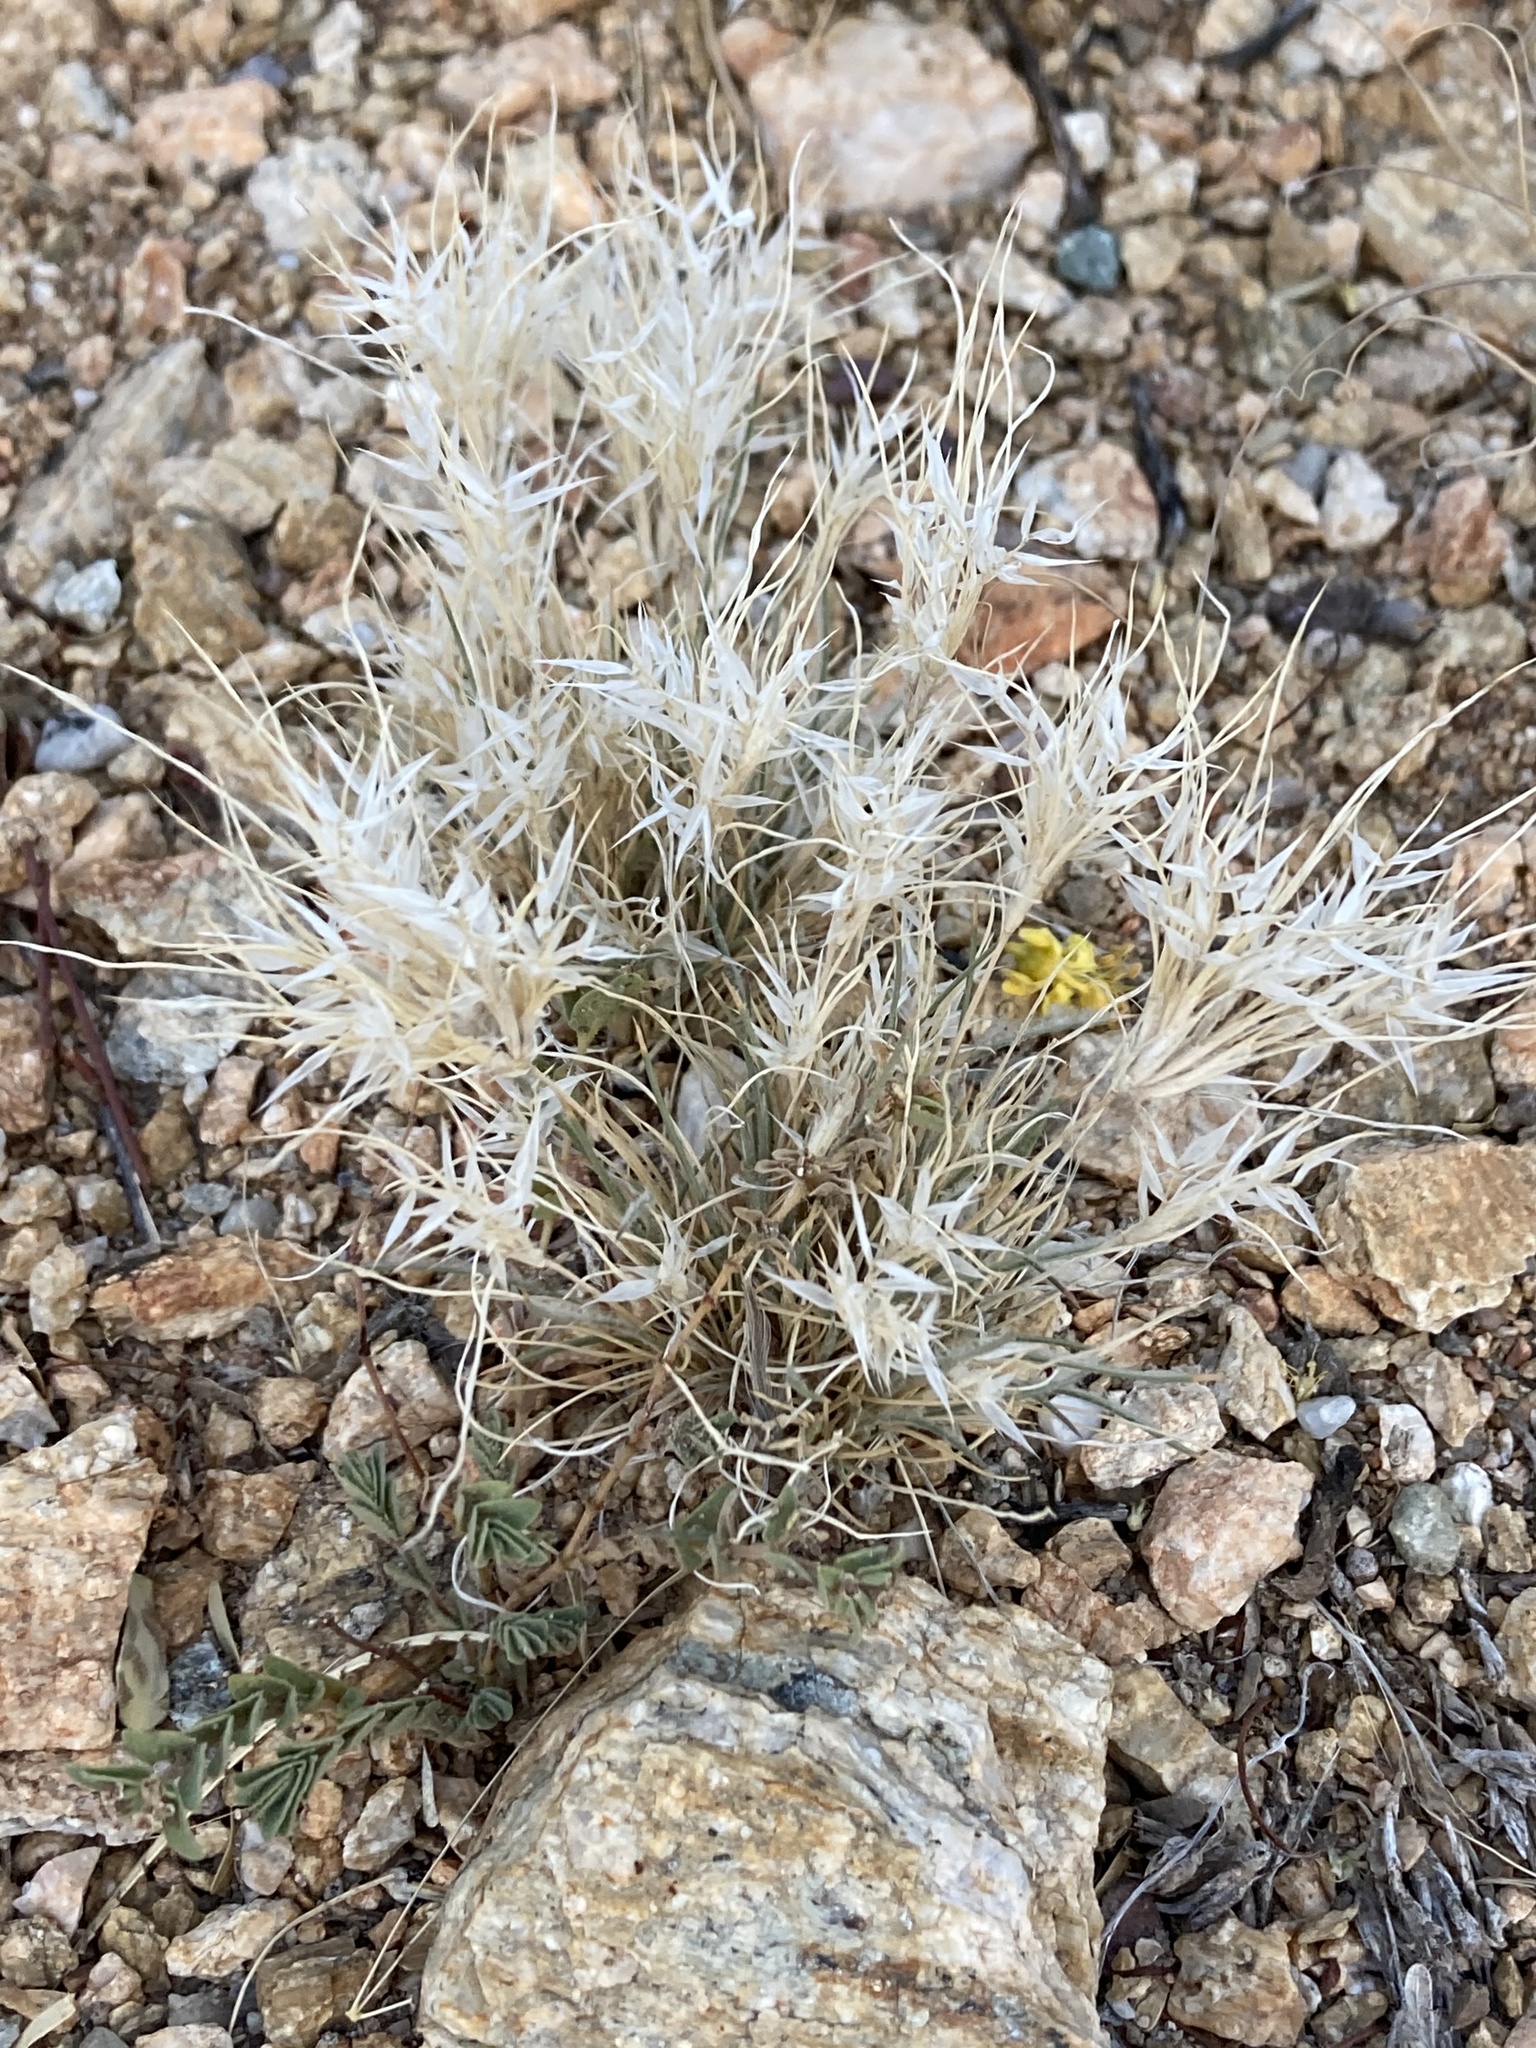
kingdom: Plantae
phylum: Tracheophyta
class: Liliopsida
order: Poales
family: Poaceae
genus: Dasyochloa
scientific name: Dasyochloa pulchella
